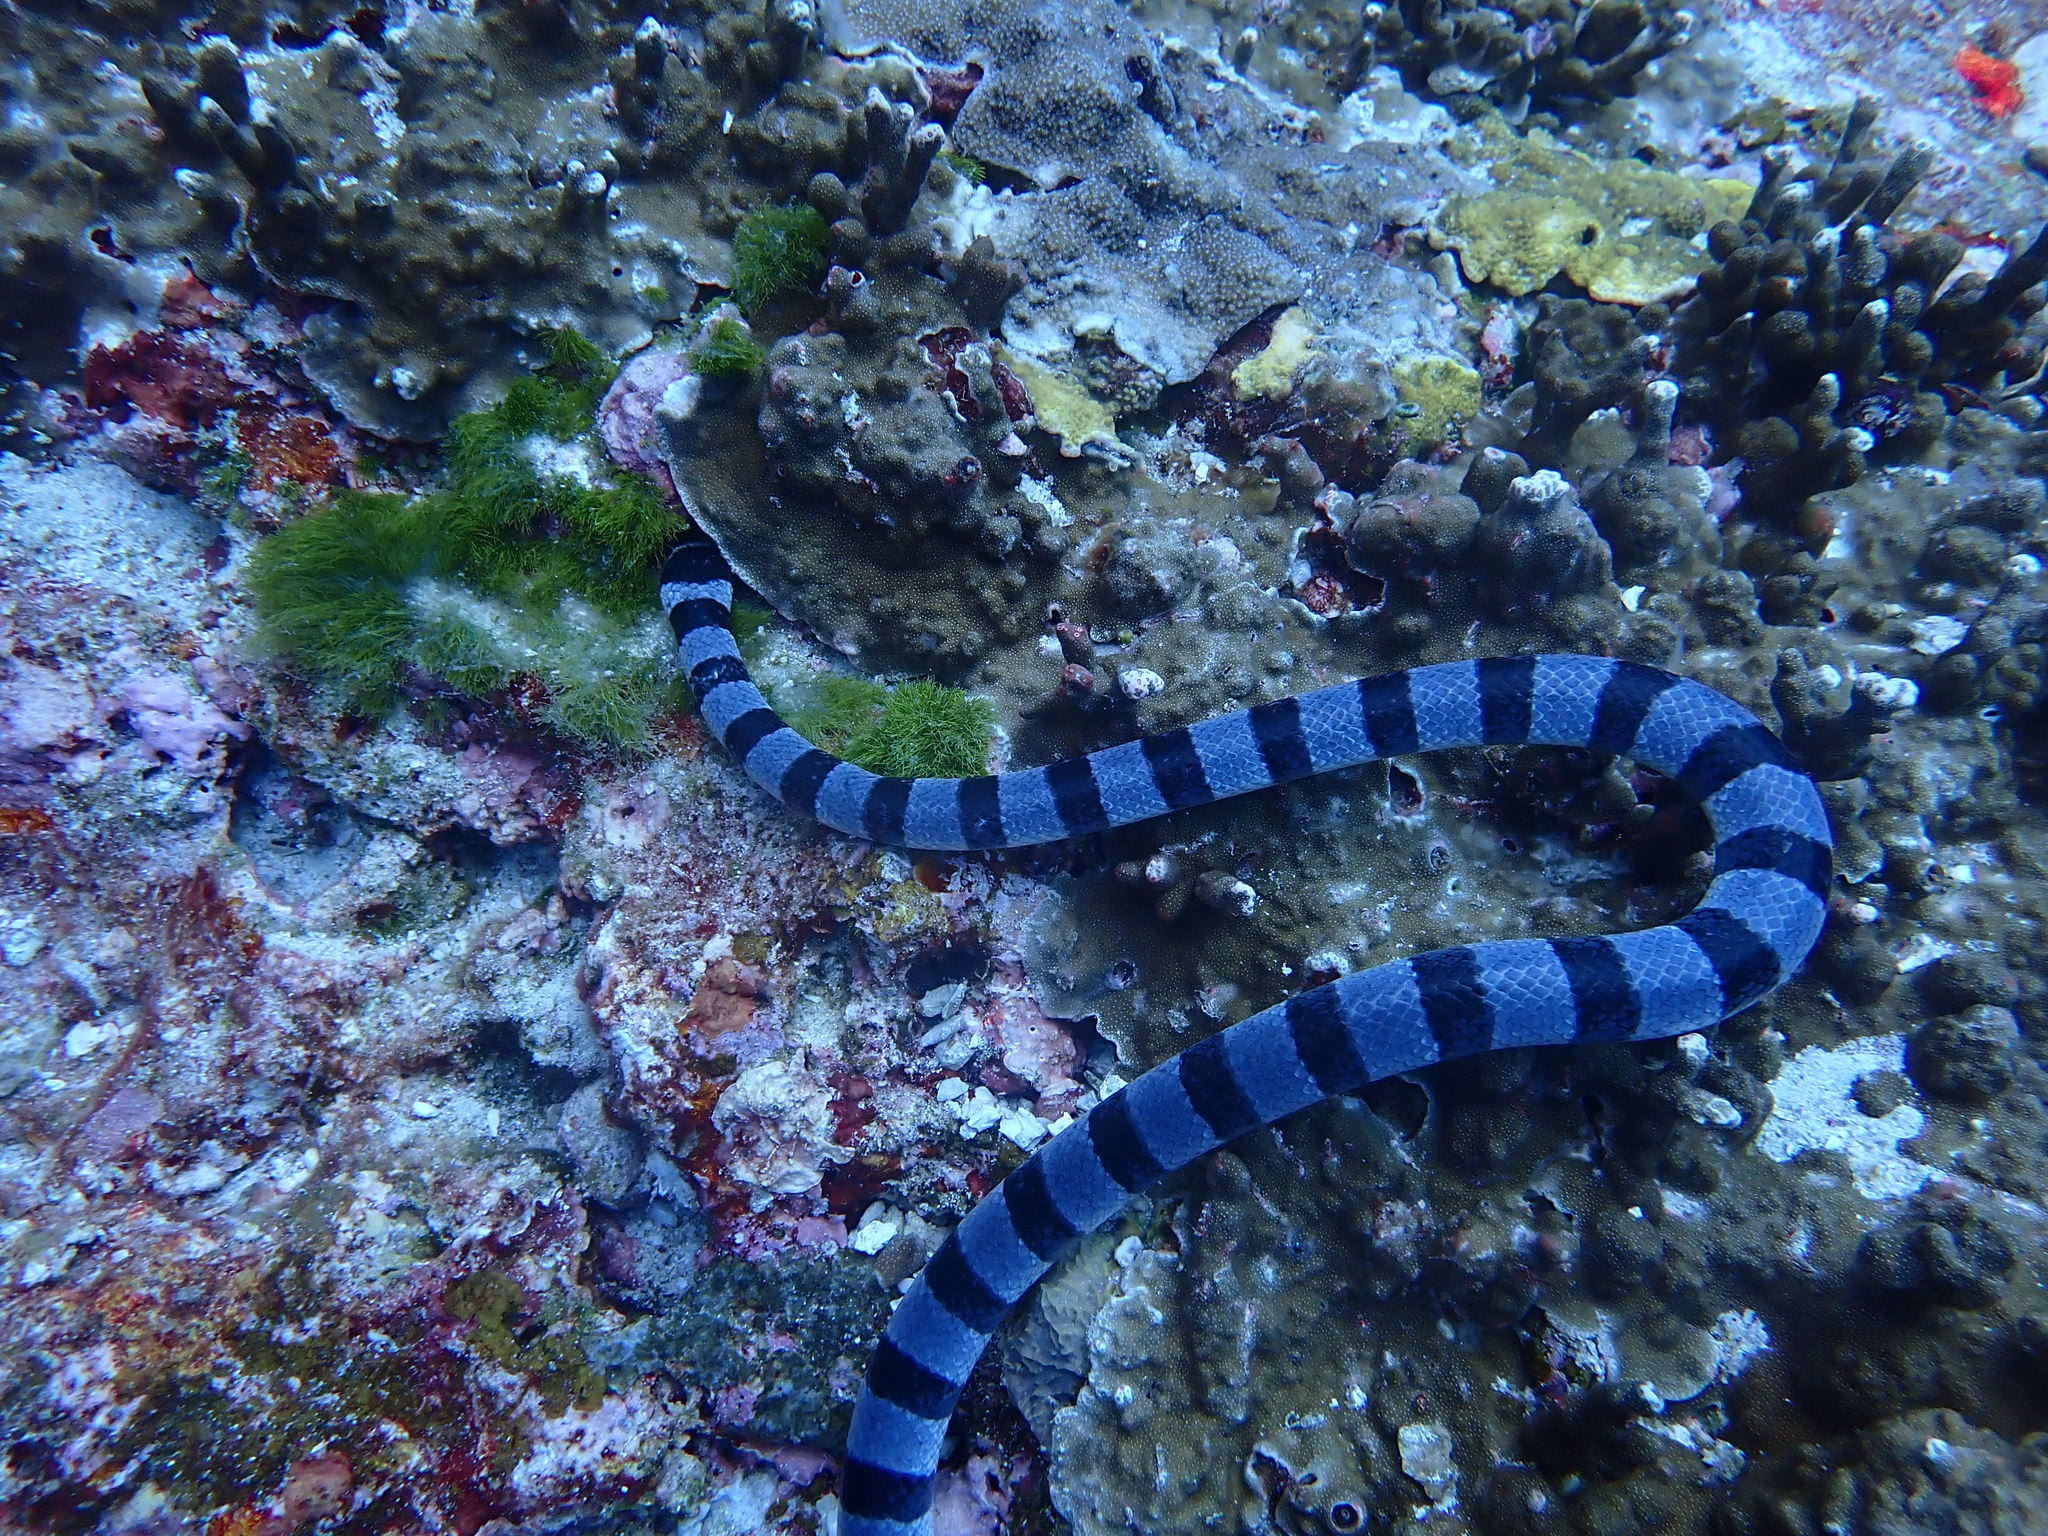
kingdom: Animalia
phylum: Chordata
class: Squamata
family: Elapidae
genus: Laticauda
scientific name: Laticauda colubrina
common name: Yellow-lipped sea krait
